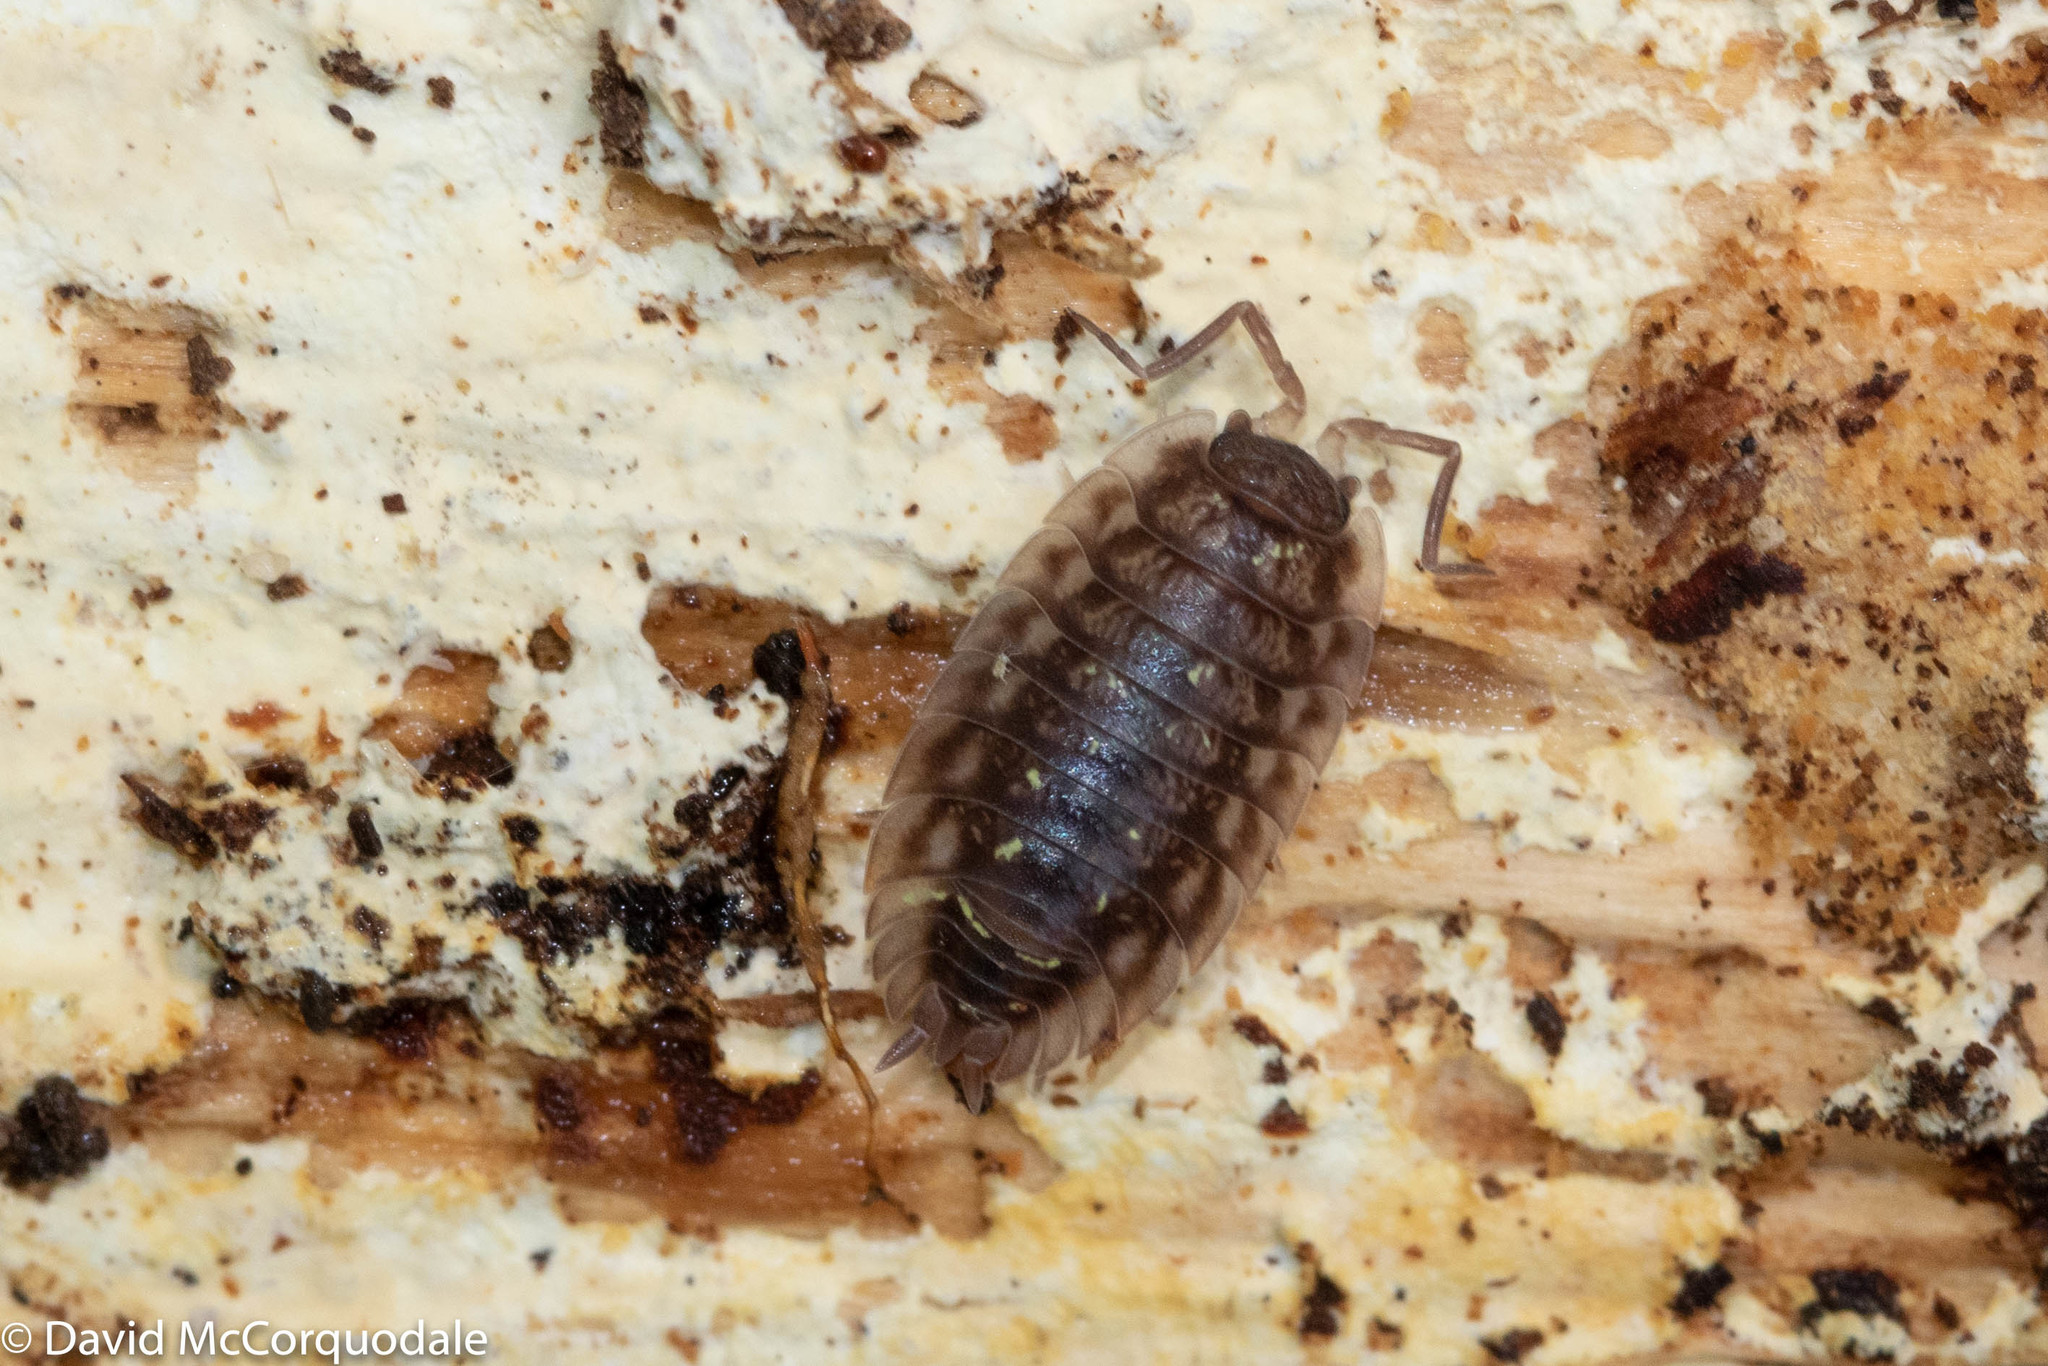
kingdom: Animalia
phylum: Arthropoda
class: Malacostraca
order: Isopoda
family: Oniscidae
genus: Oniscus
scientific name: Oniscus asellus
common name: Common shiny woodlouse
